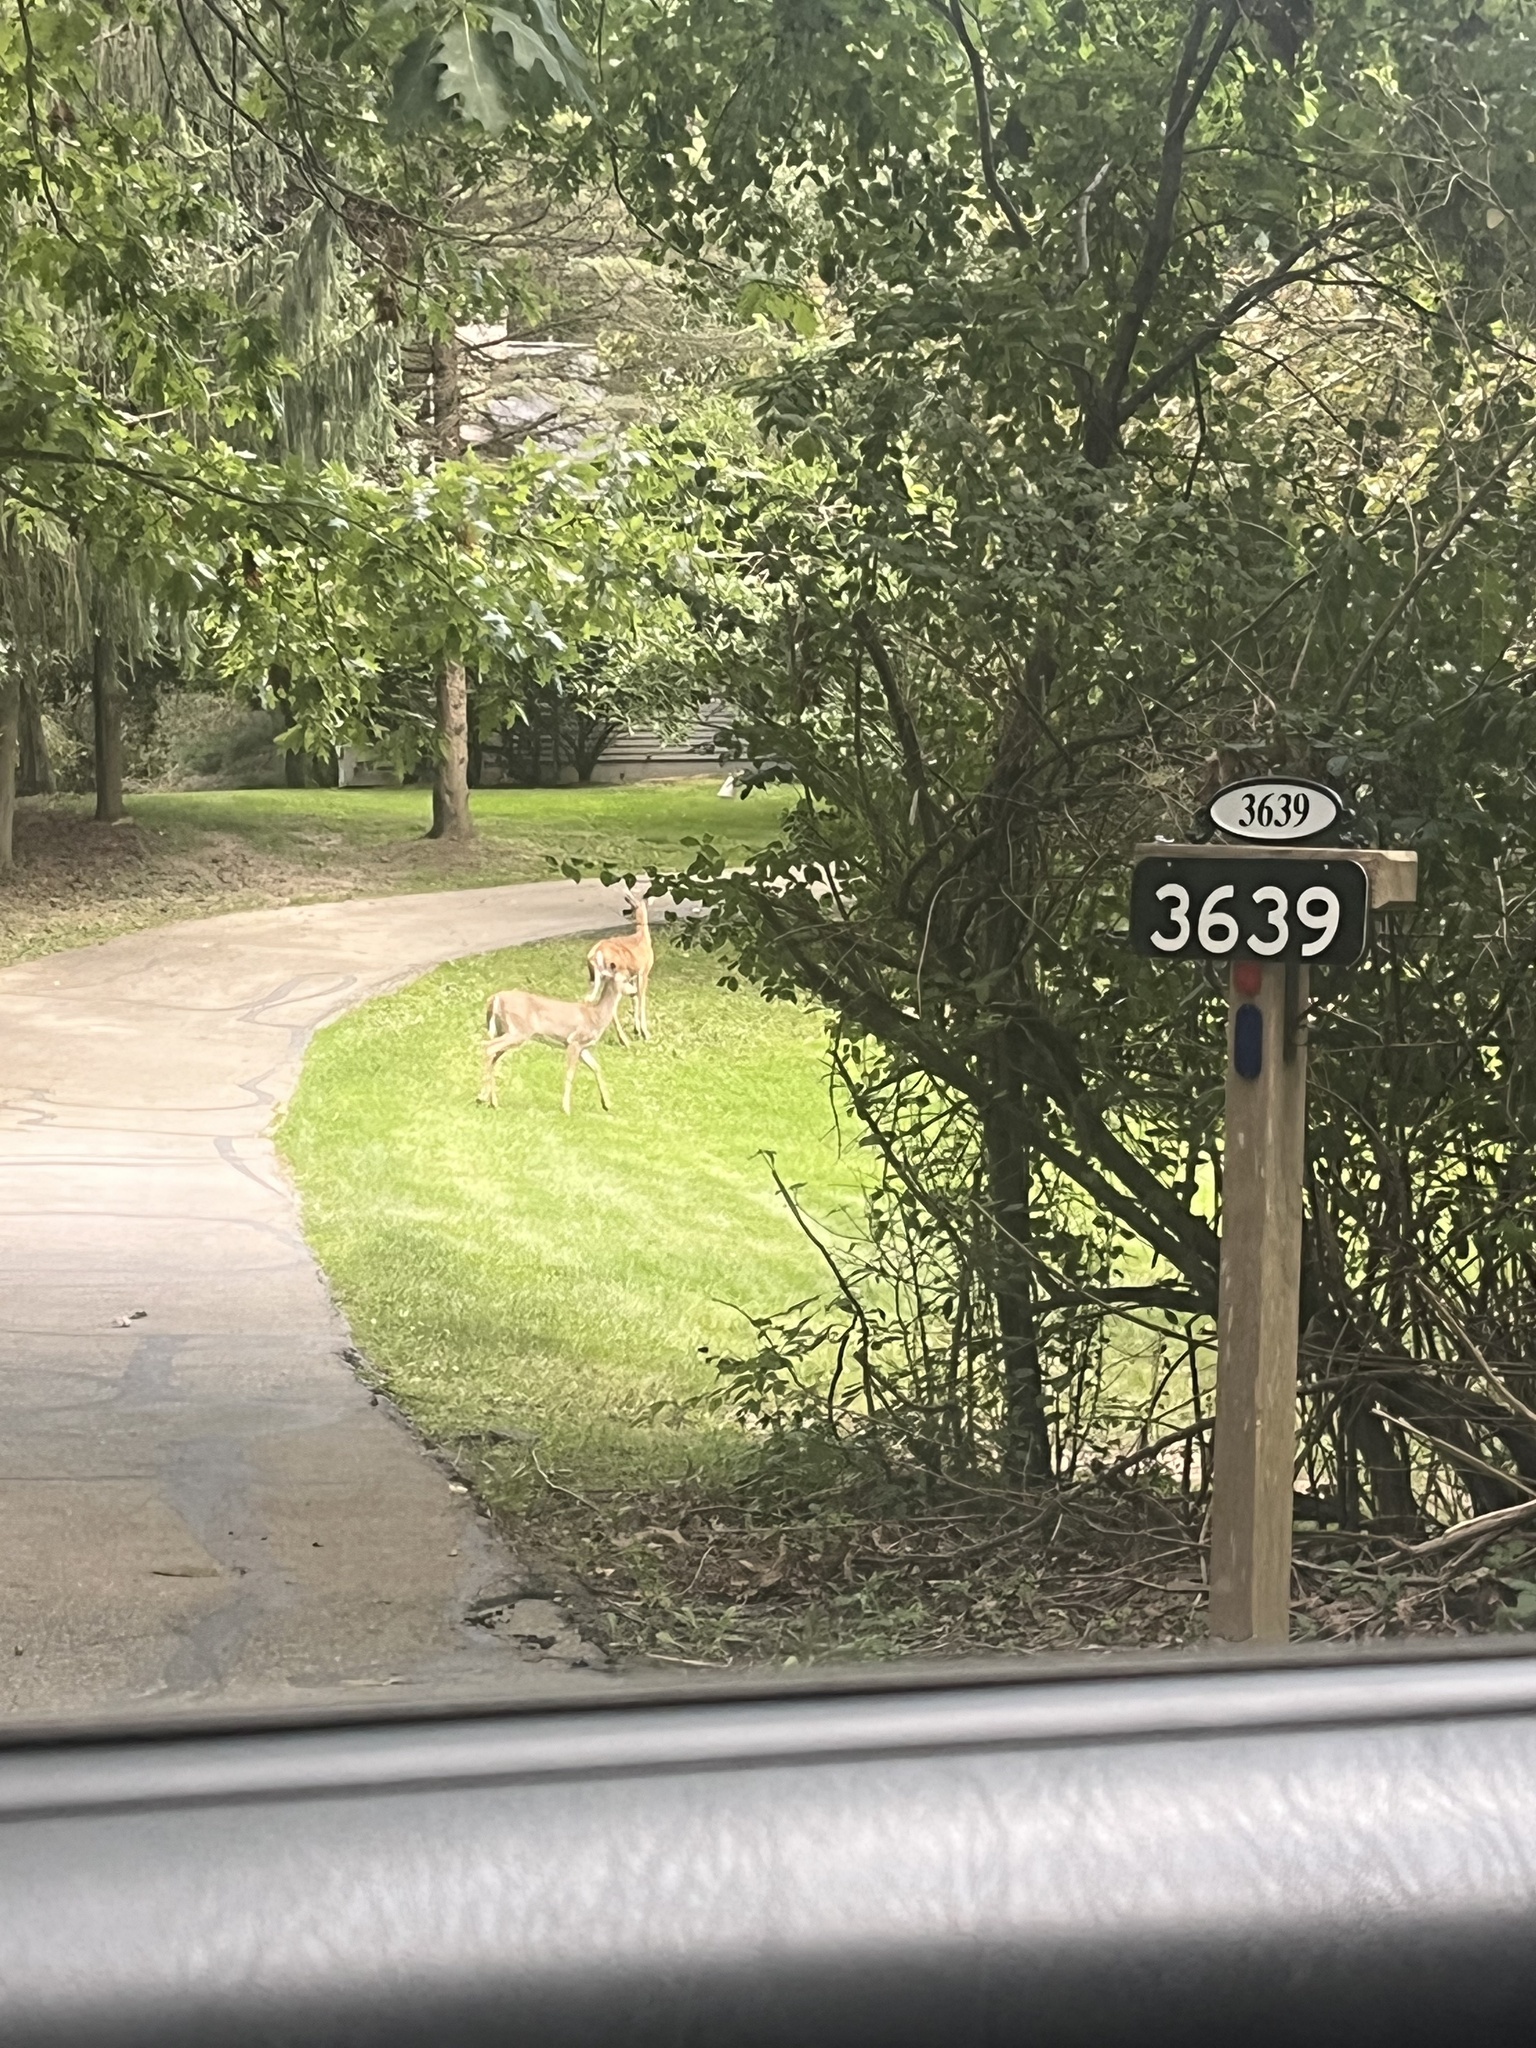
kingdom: Animalia
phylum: Chordata
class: Mammalia
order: Artiodactyla
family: Cervidae
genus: Odocoileus
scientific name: Odocoileus virginianus
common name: White-tailed deer
